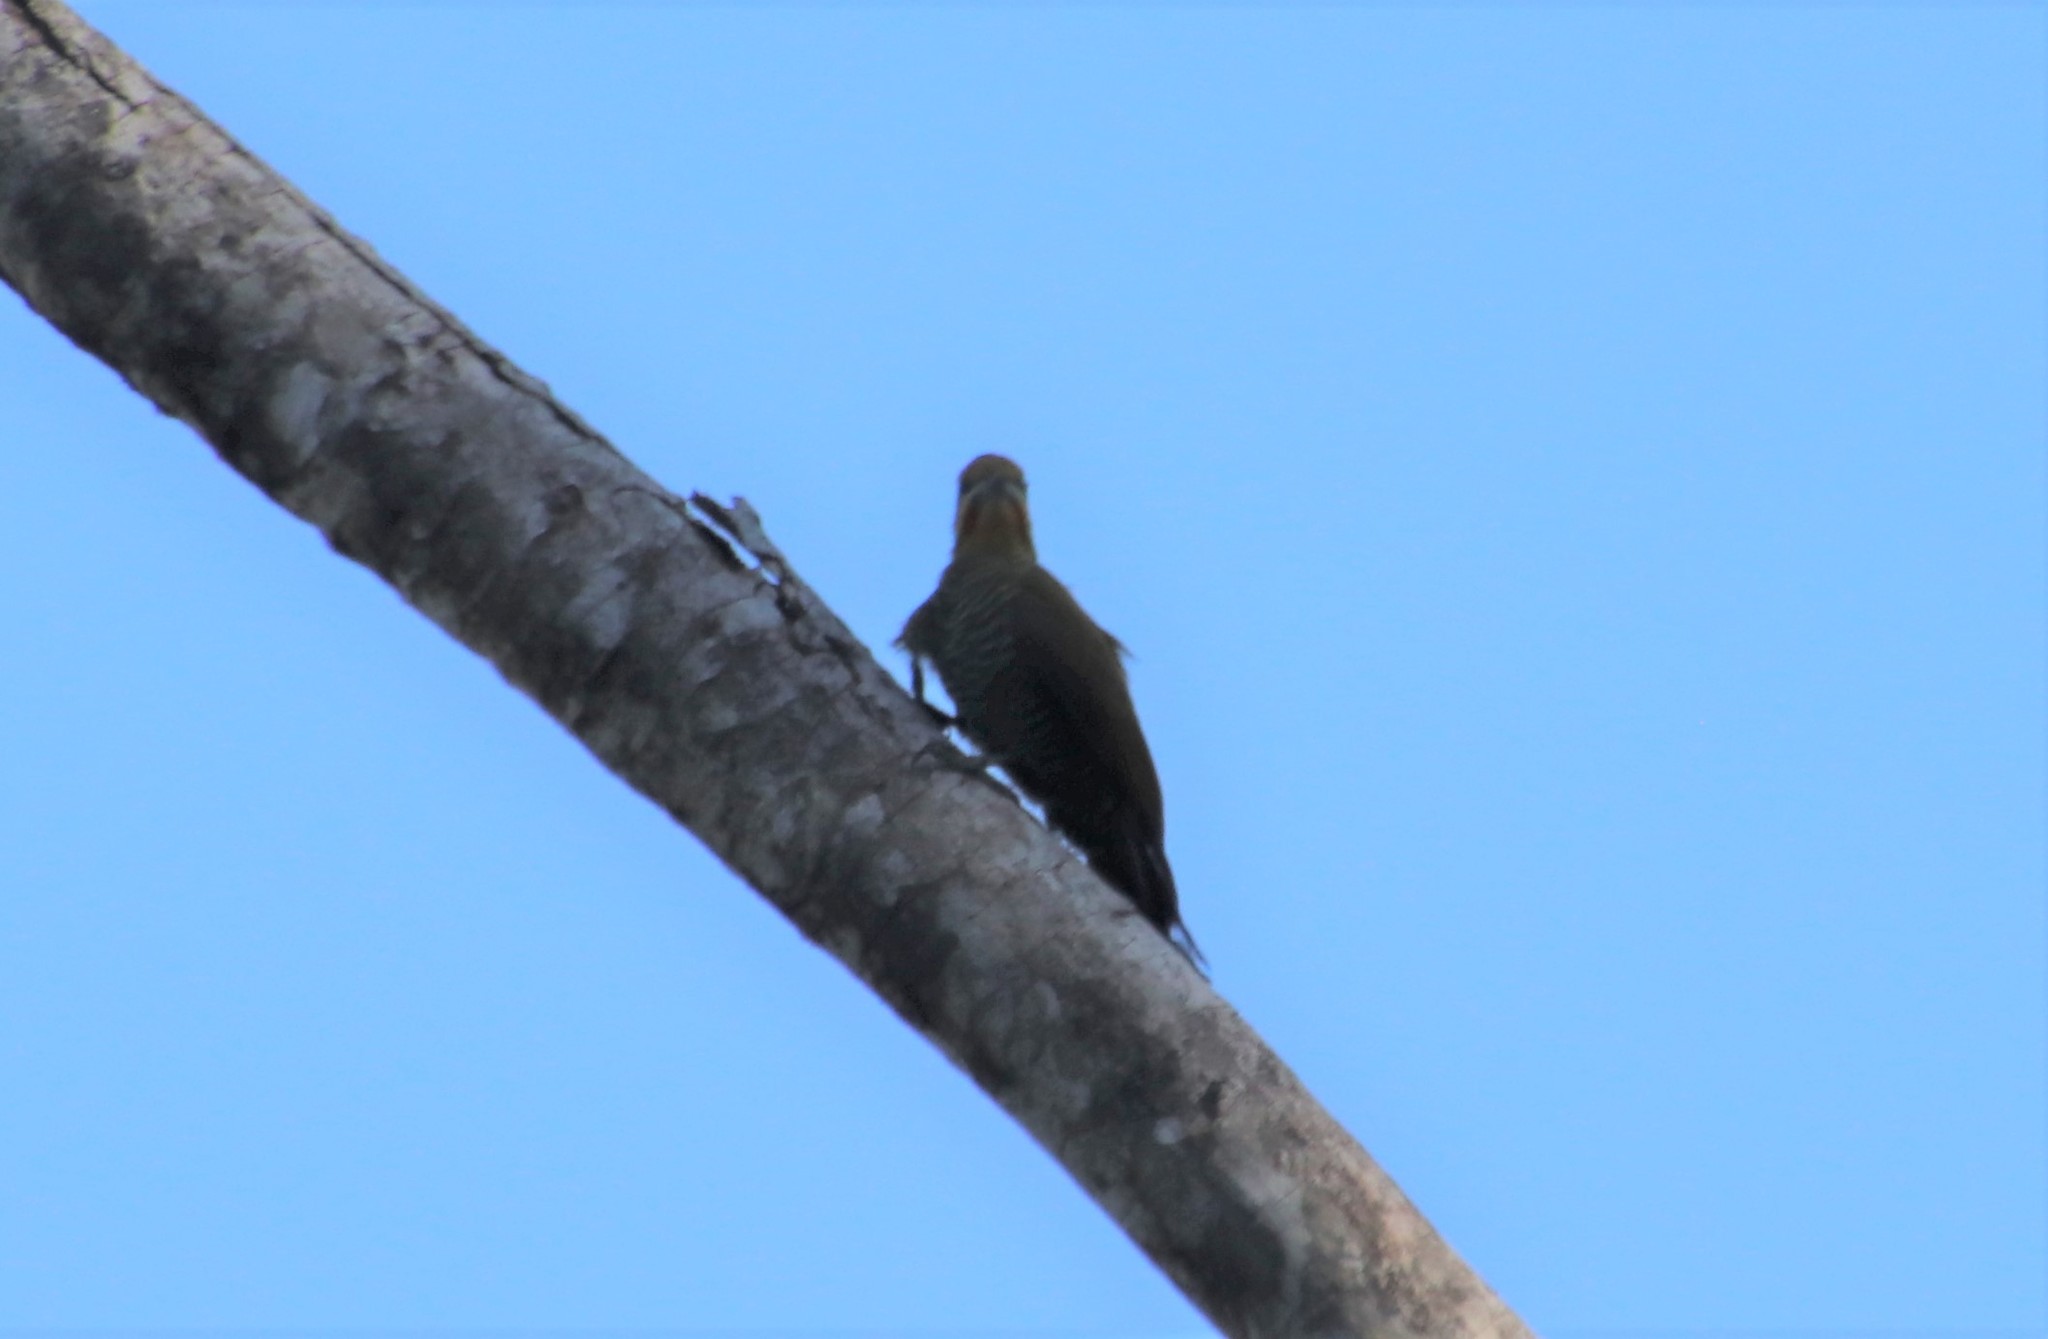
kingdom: Animalia
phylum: Chordata
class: Aves
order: Piciformes
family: Picidae
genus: Piculus
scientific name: Piculus aurulentus
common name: Yellow-browed woodpecker
